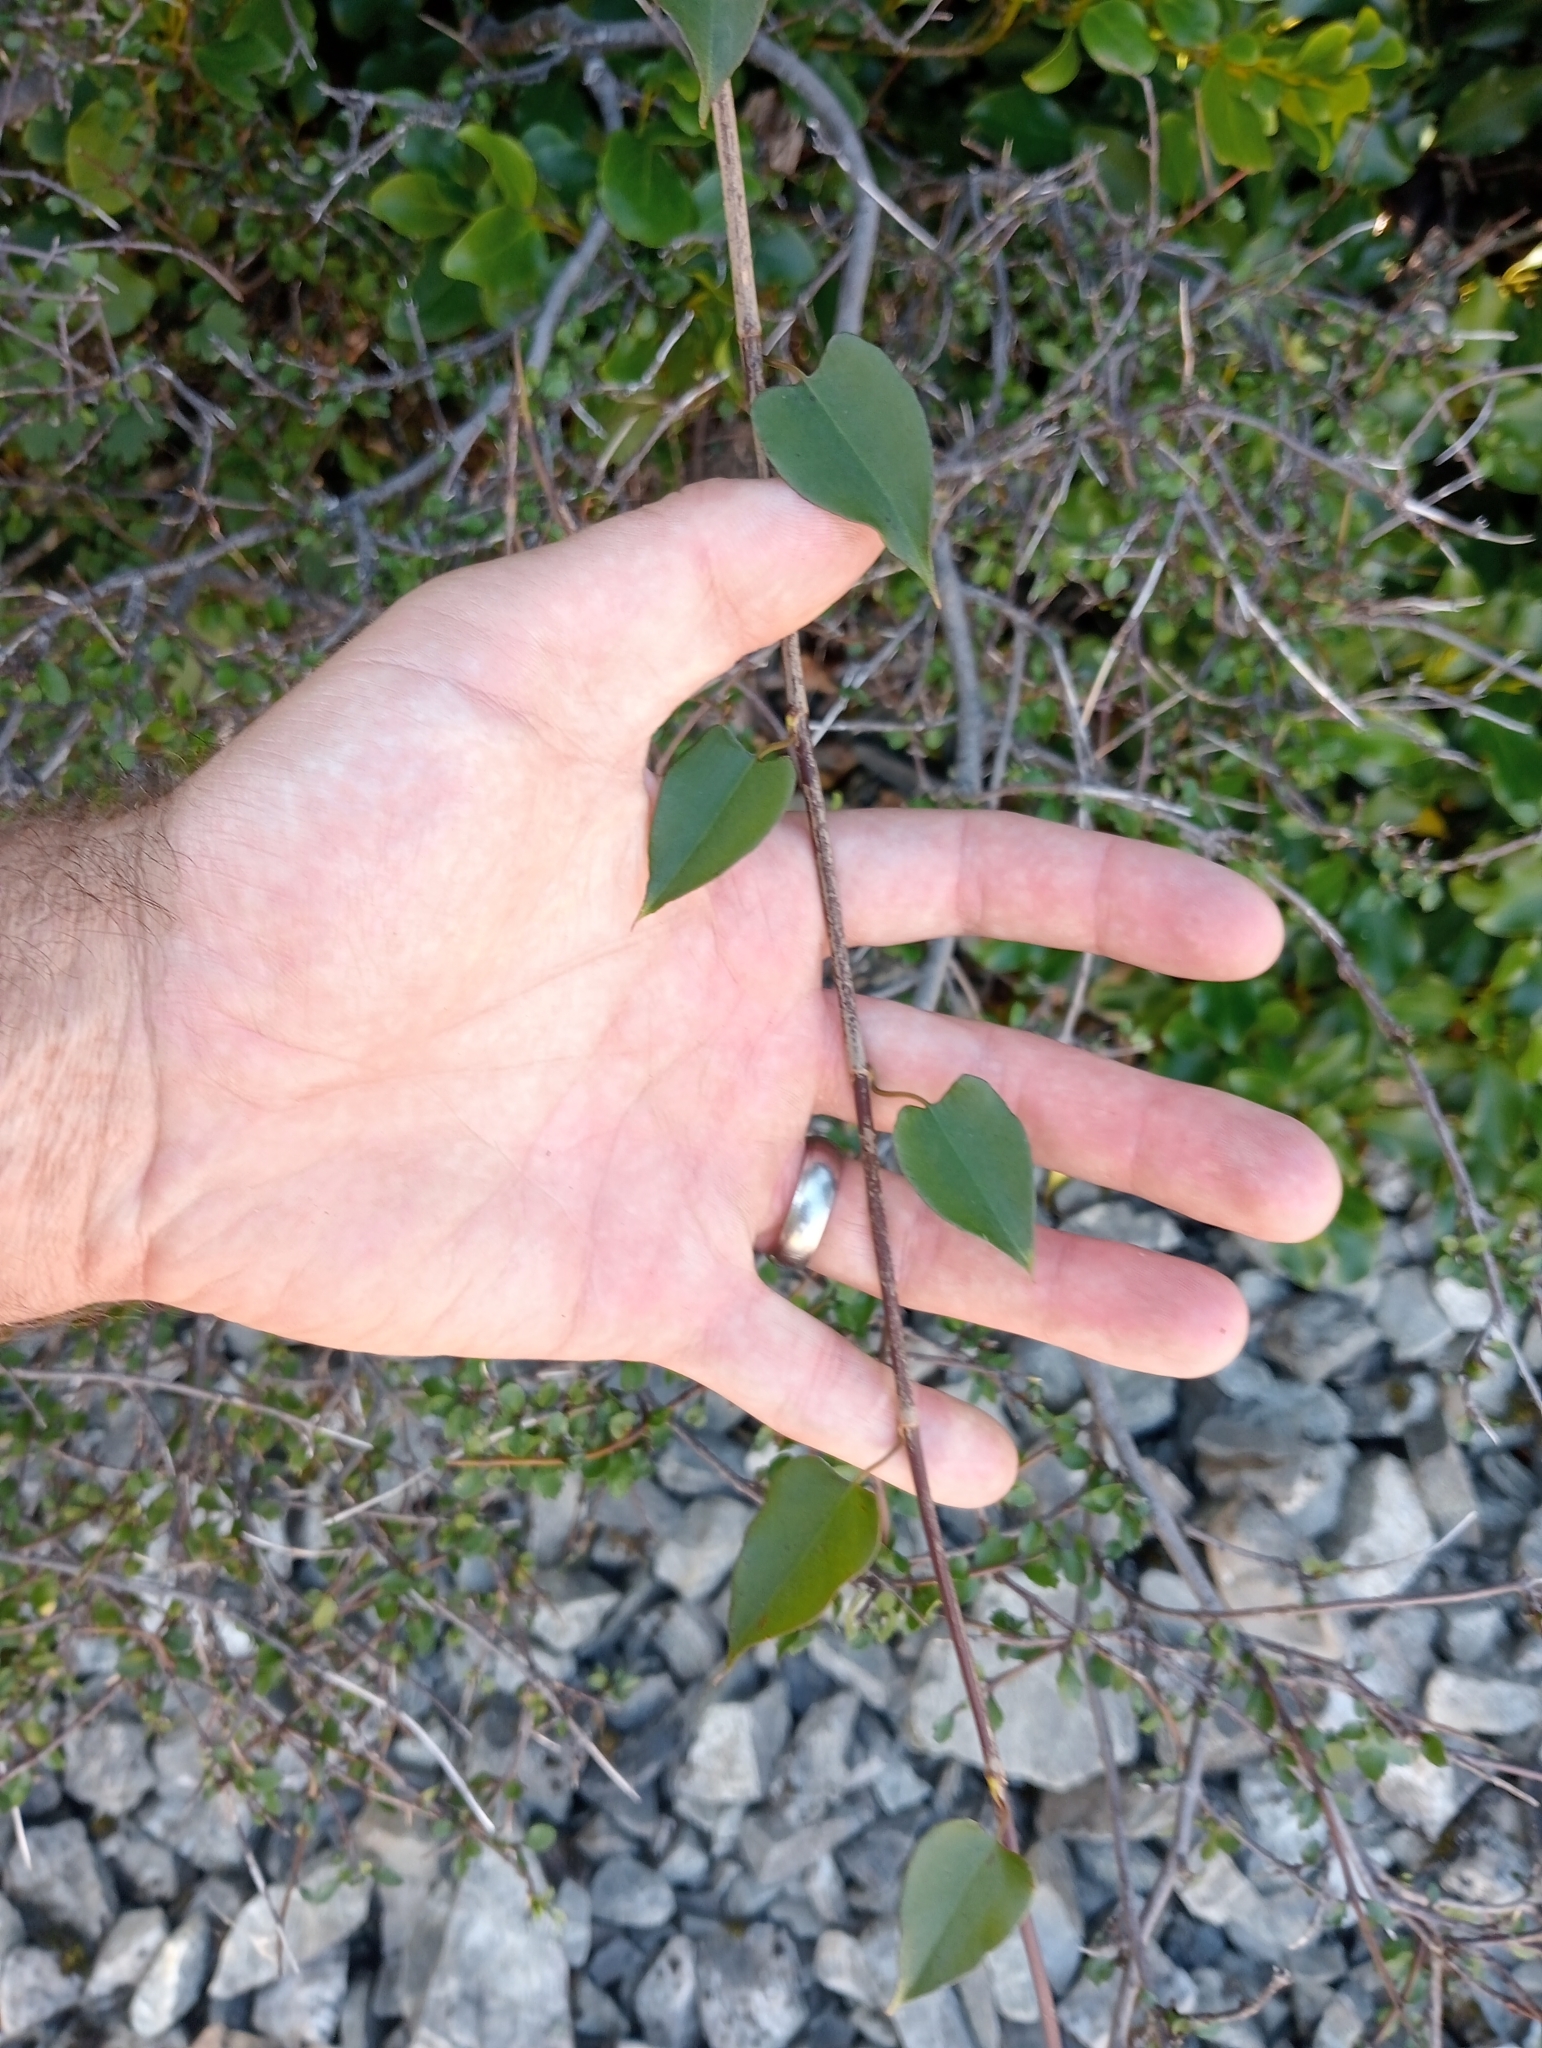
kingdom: Plantae
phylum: Tracheophyta
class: Magnoliopsida
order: Caryophyllales
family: Polygonaceae
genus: Muehlenbeckia
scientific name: Muehlenbeckia australis
